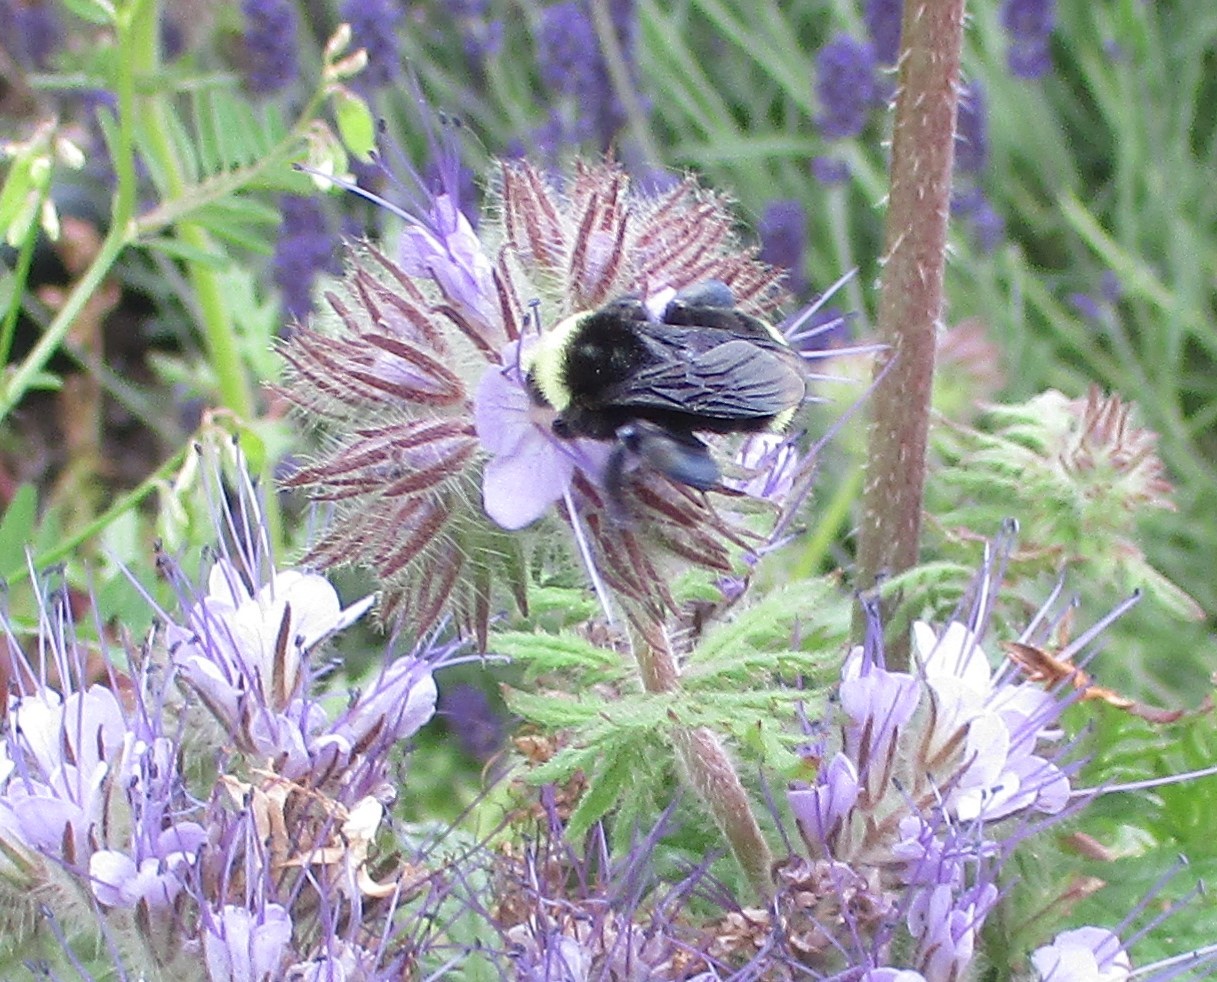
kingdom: Animalia
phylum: Arthropoda
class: Insecta
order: Hymenoptera
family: Apidae
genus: Bombus
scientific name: Bombus vosnesenskii
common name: Vosnesensky bumble bee
